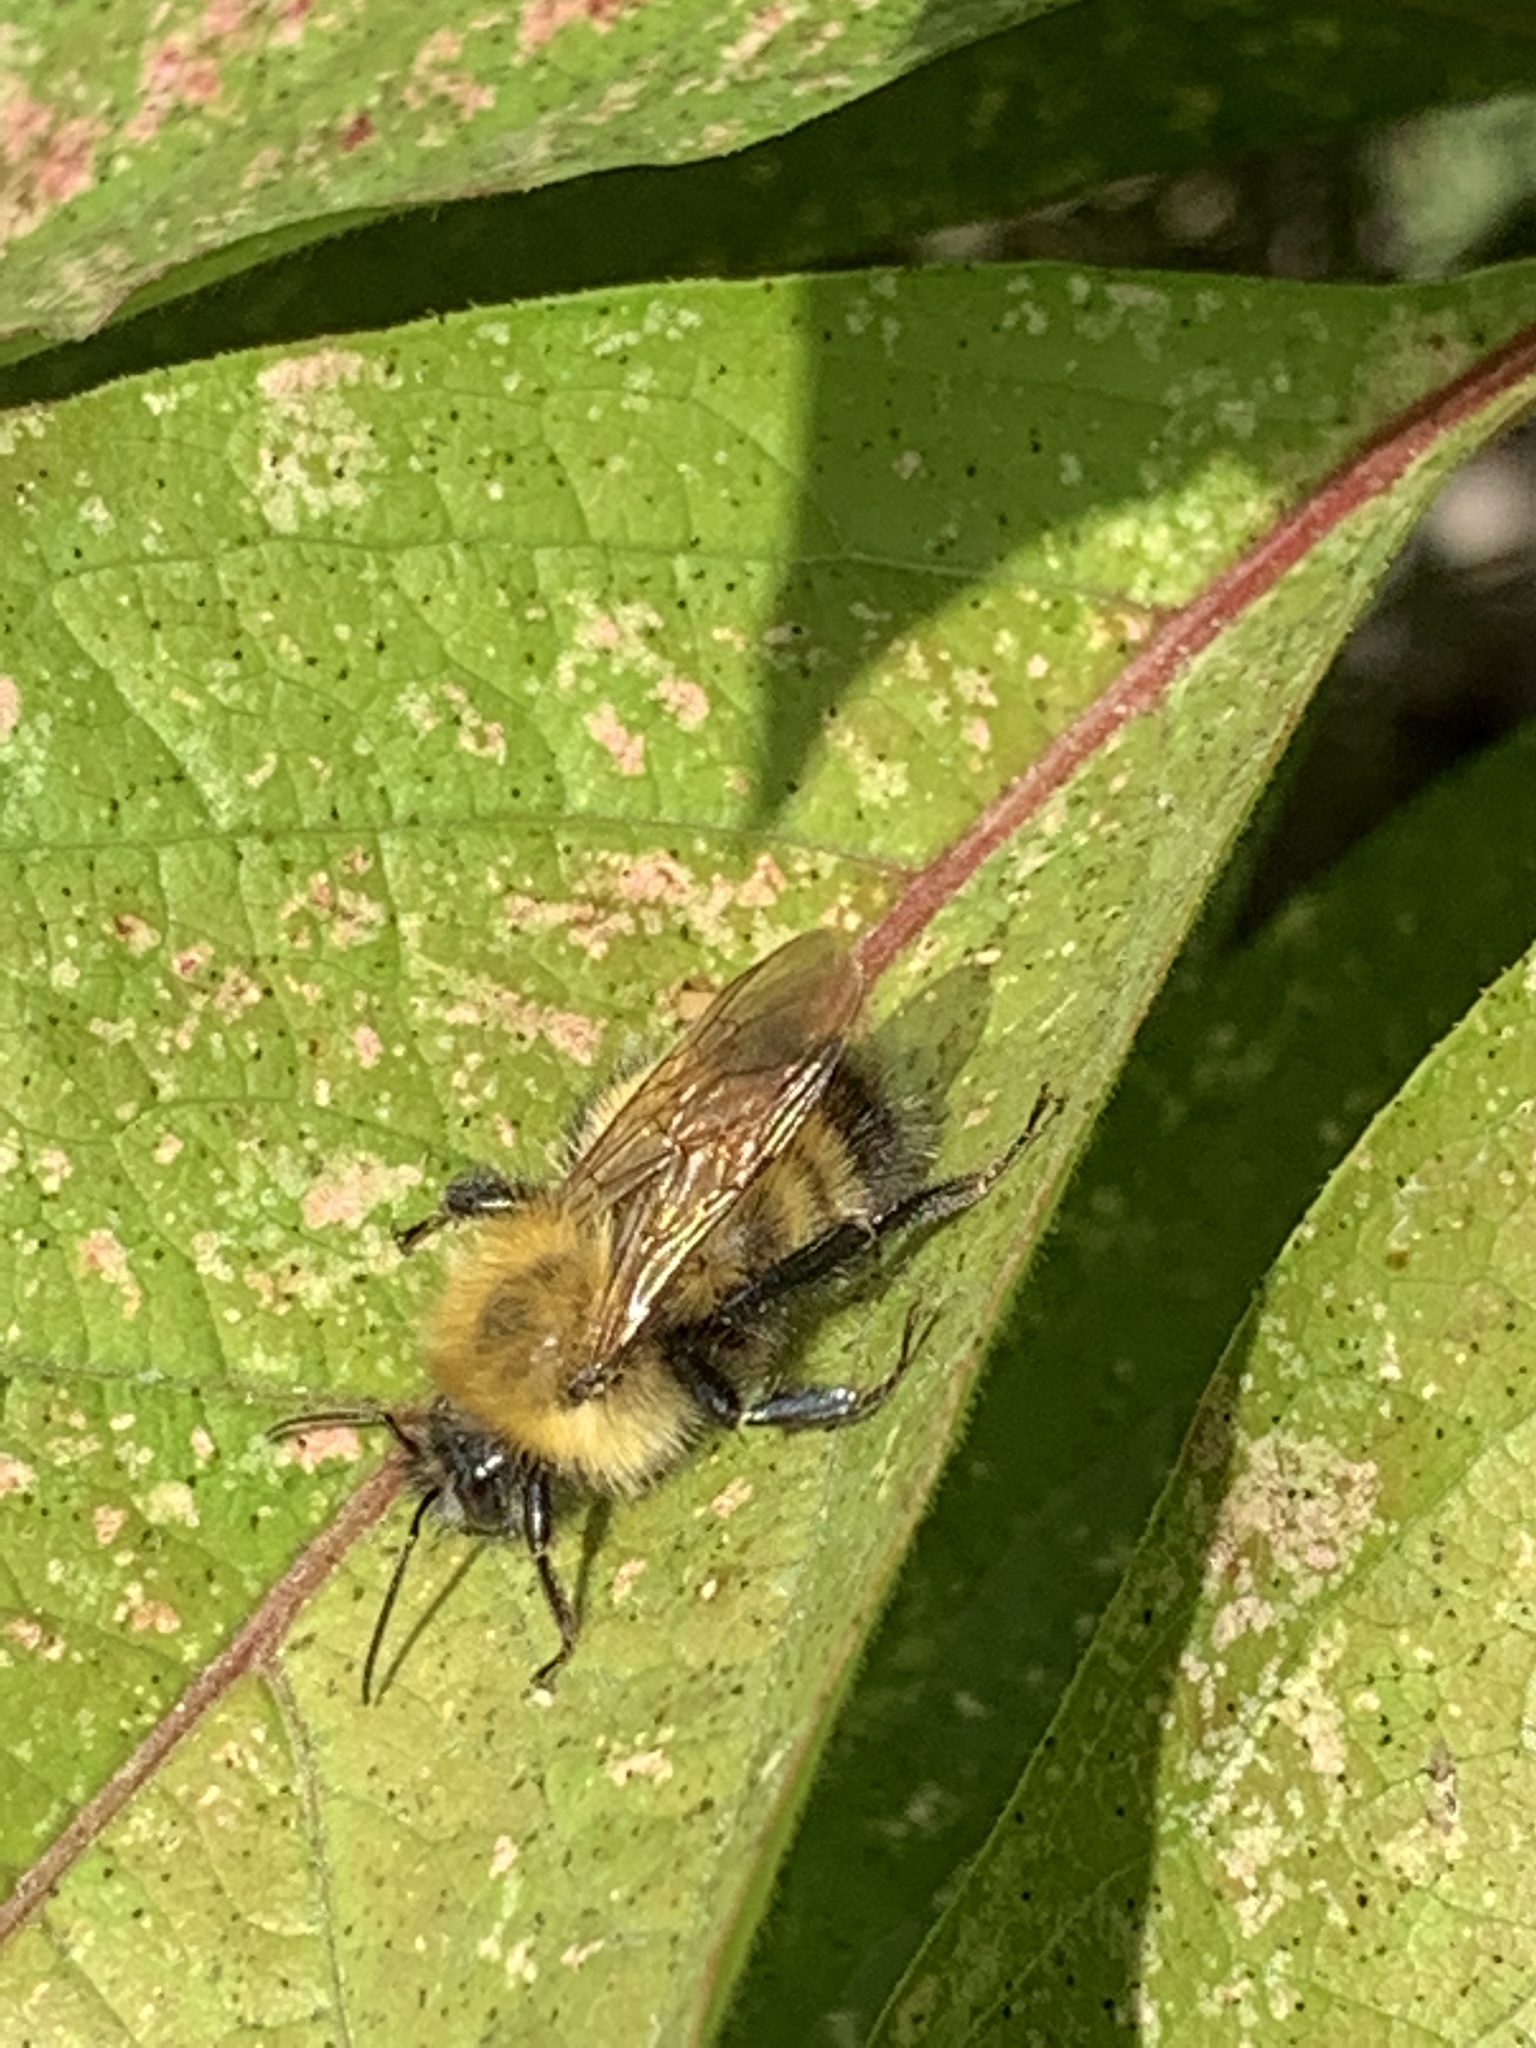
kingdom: Animalia
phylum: Arthropoda
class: Insecta
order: Hymenoptera
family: Apidae
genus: Bombus
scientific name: Bombus perplexus
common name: Confusing bumble bee
